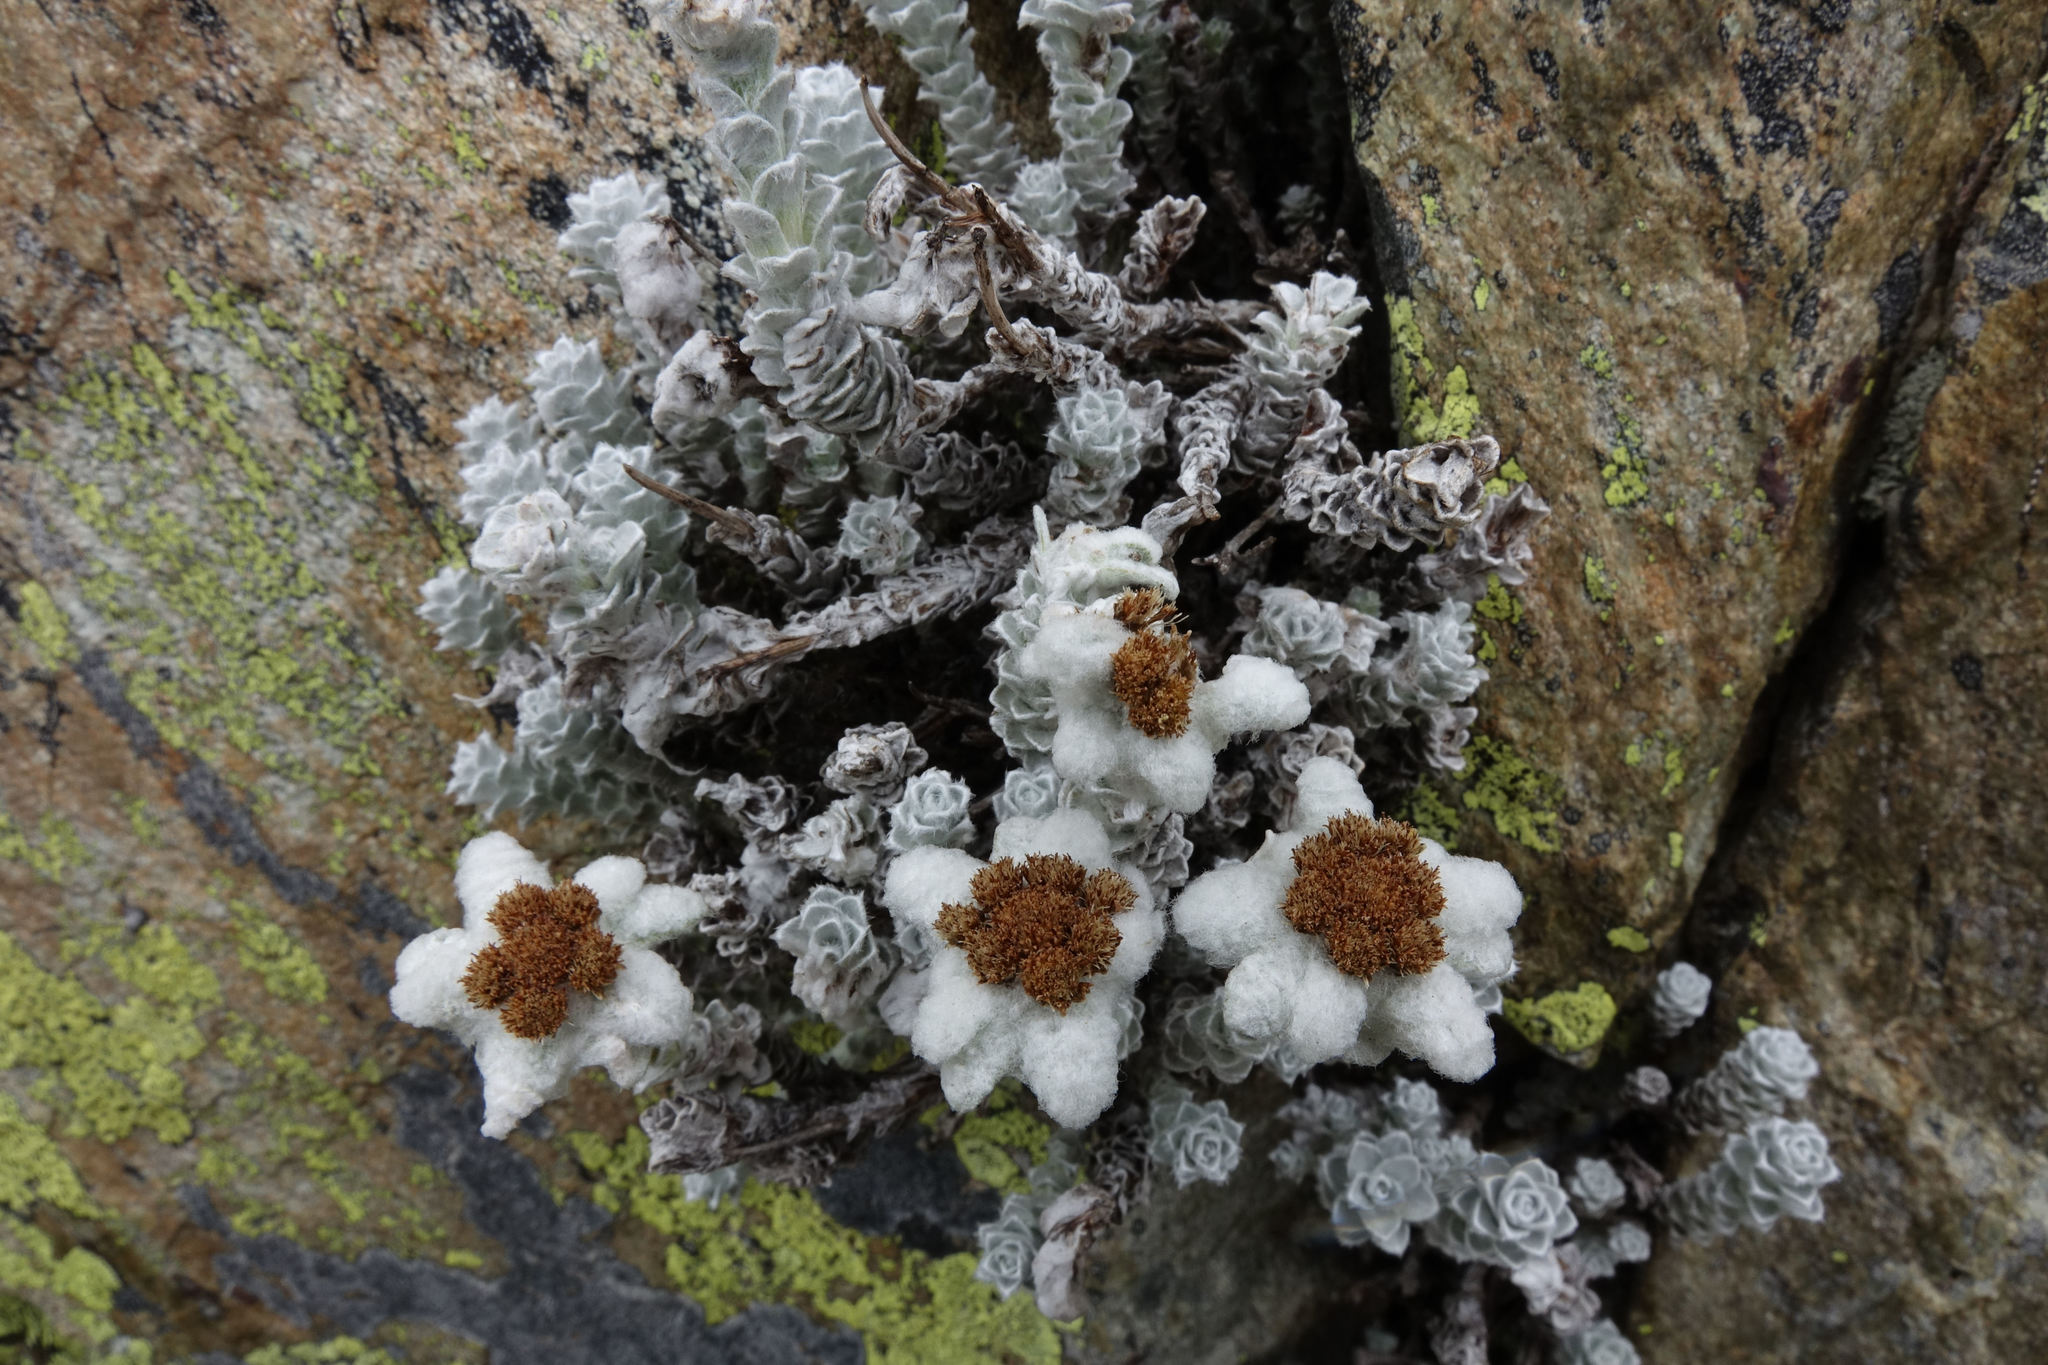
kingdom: Plantae
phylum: Tracheophyta
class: Magnoliopsida
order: Asterales
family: Asteraceae
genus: Leucogenes
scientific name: Leucogenes grandiceps
